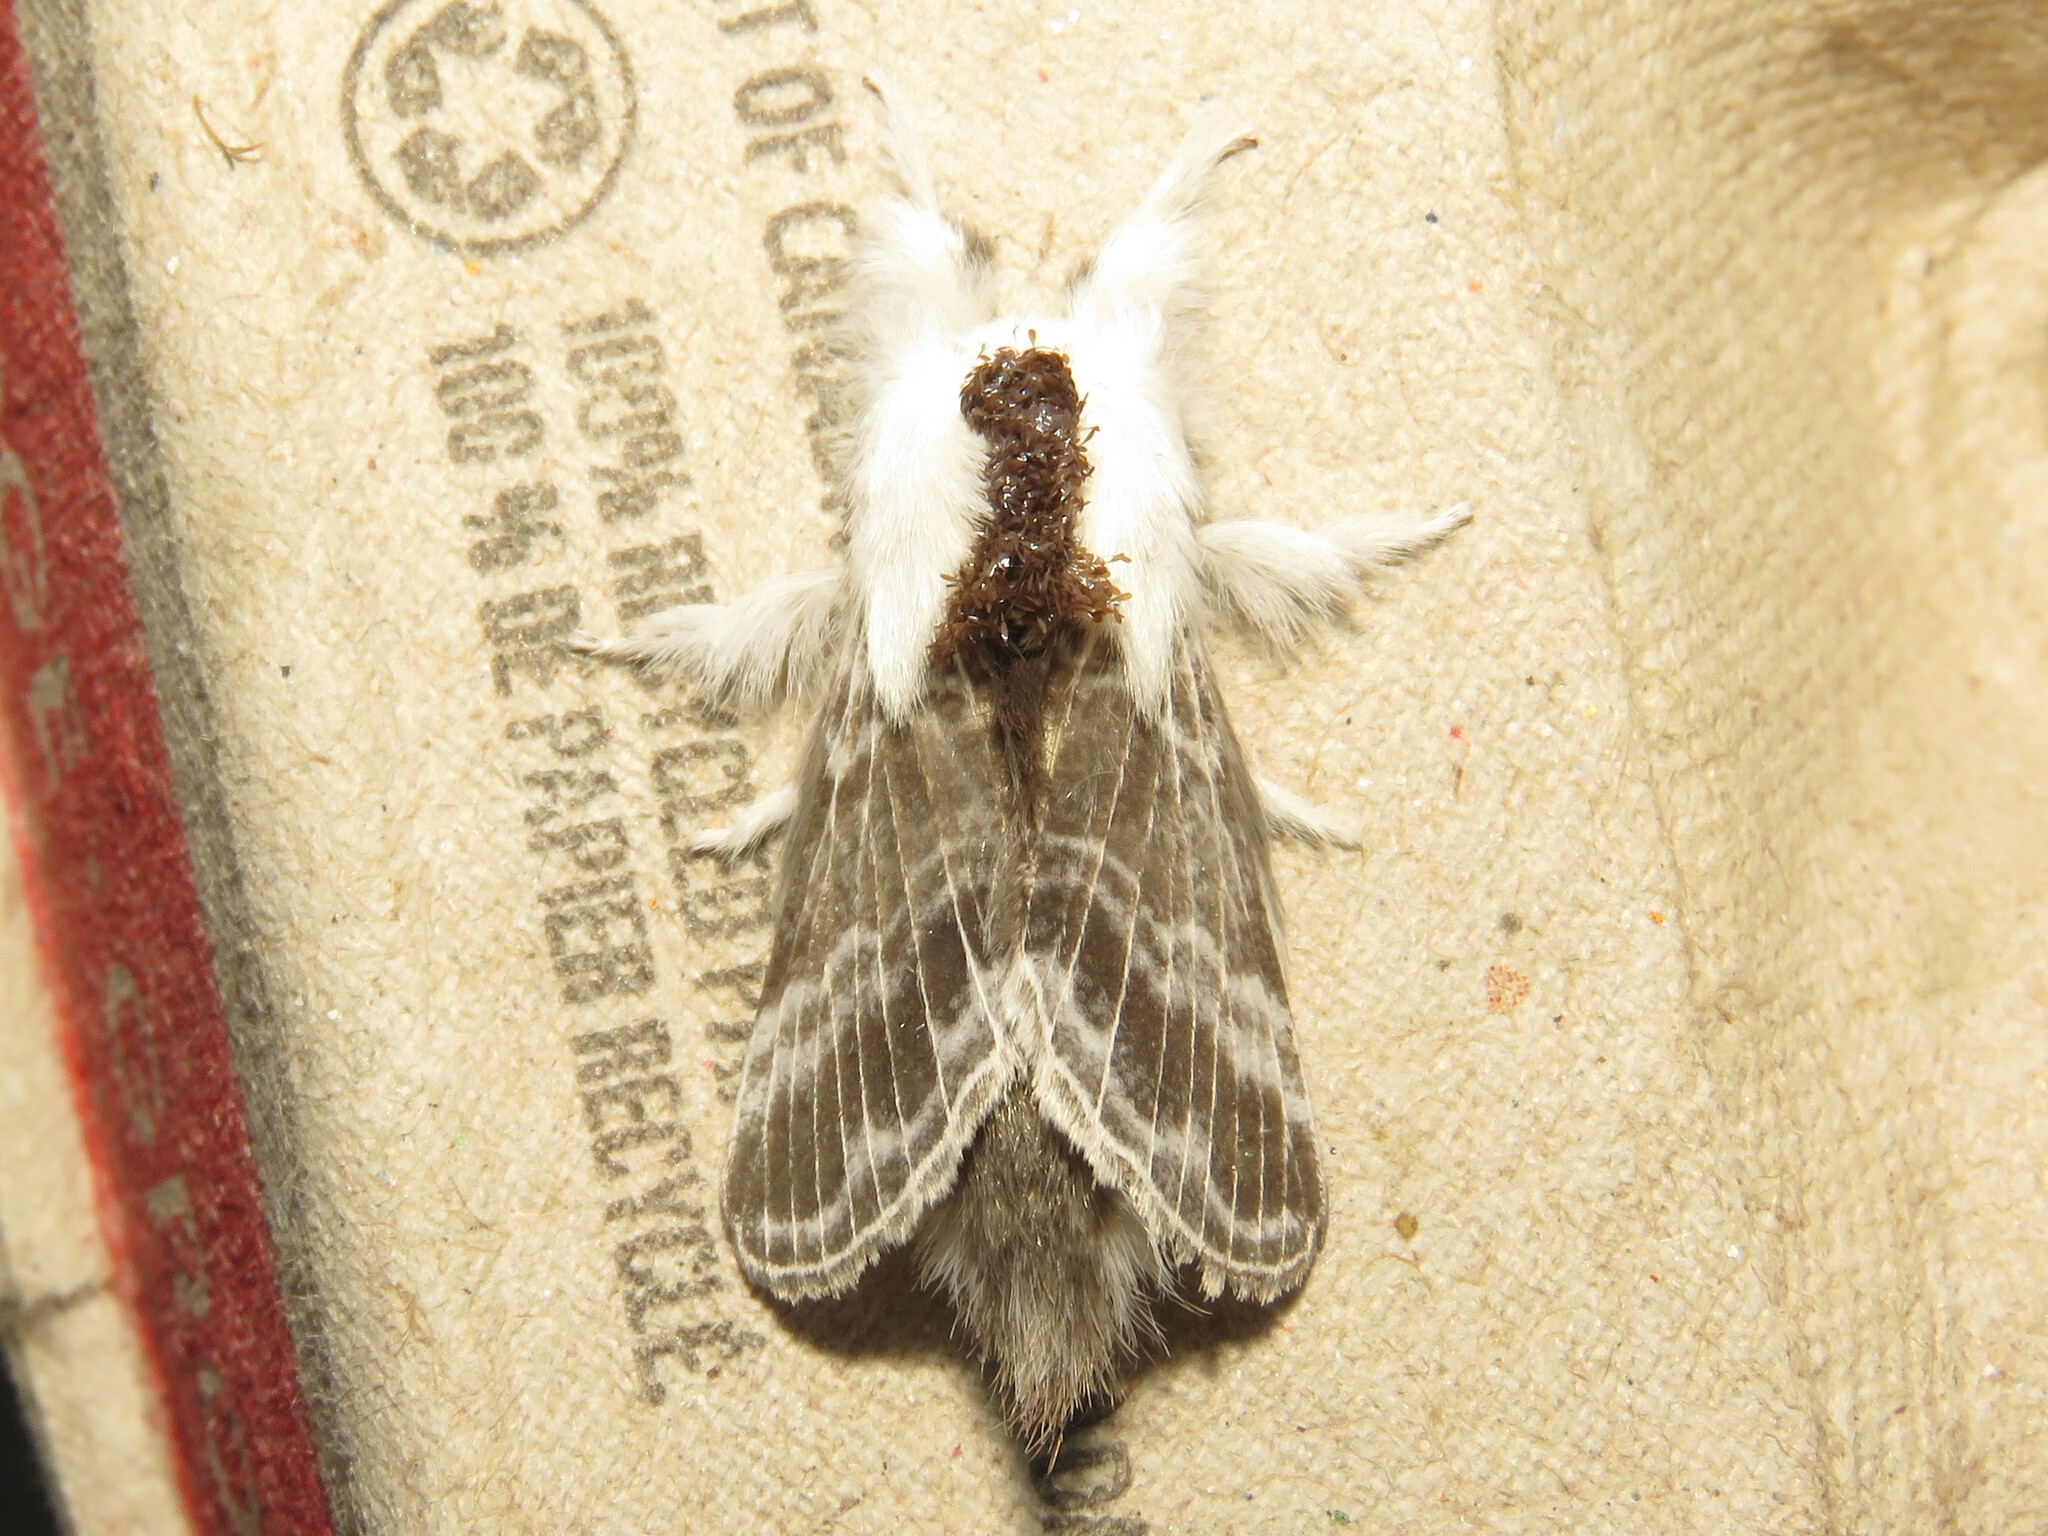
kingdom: Animalia
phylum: Arthropoda
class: Insecta
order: Lepidoptera
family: Lasiocampidae
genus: Tolype
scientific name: Tolype velleda
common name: Large tolype moth
